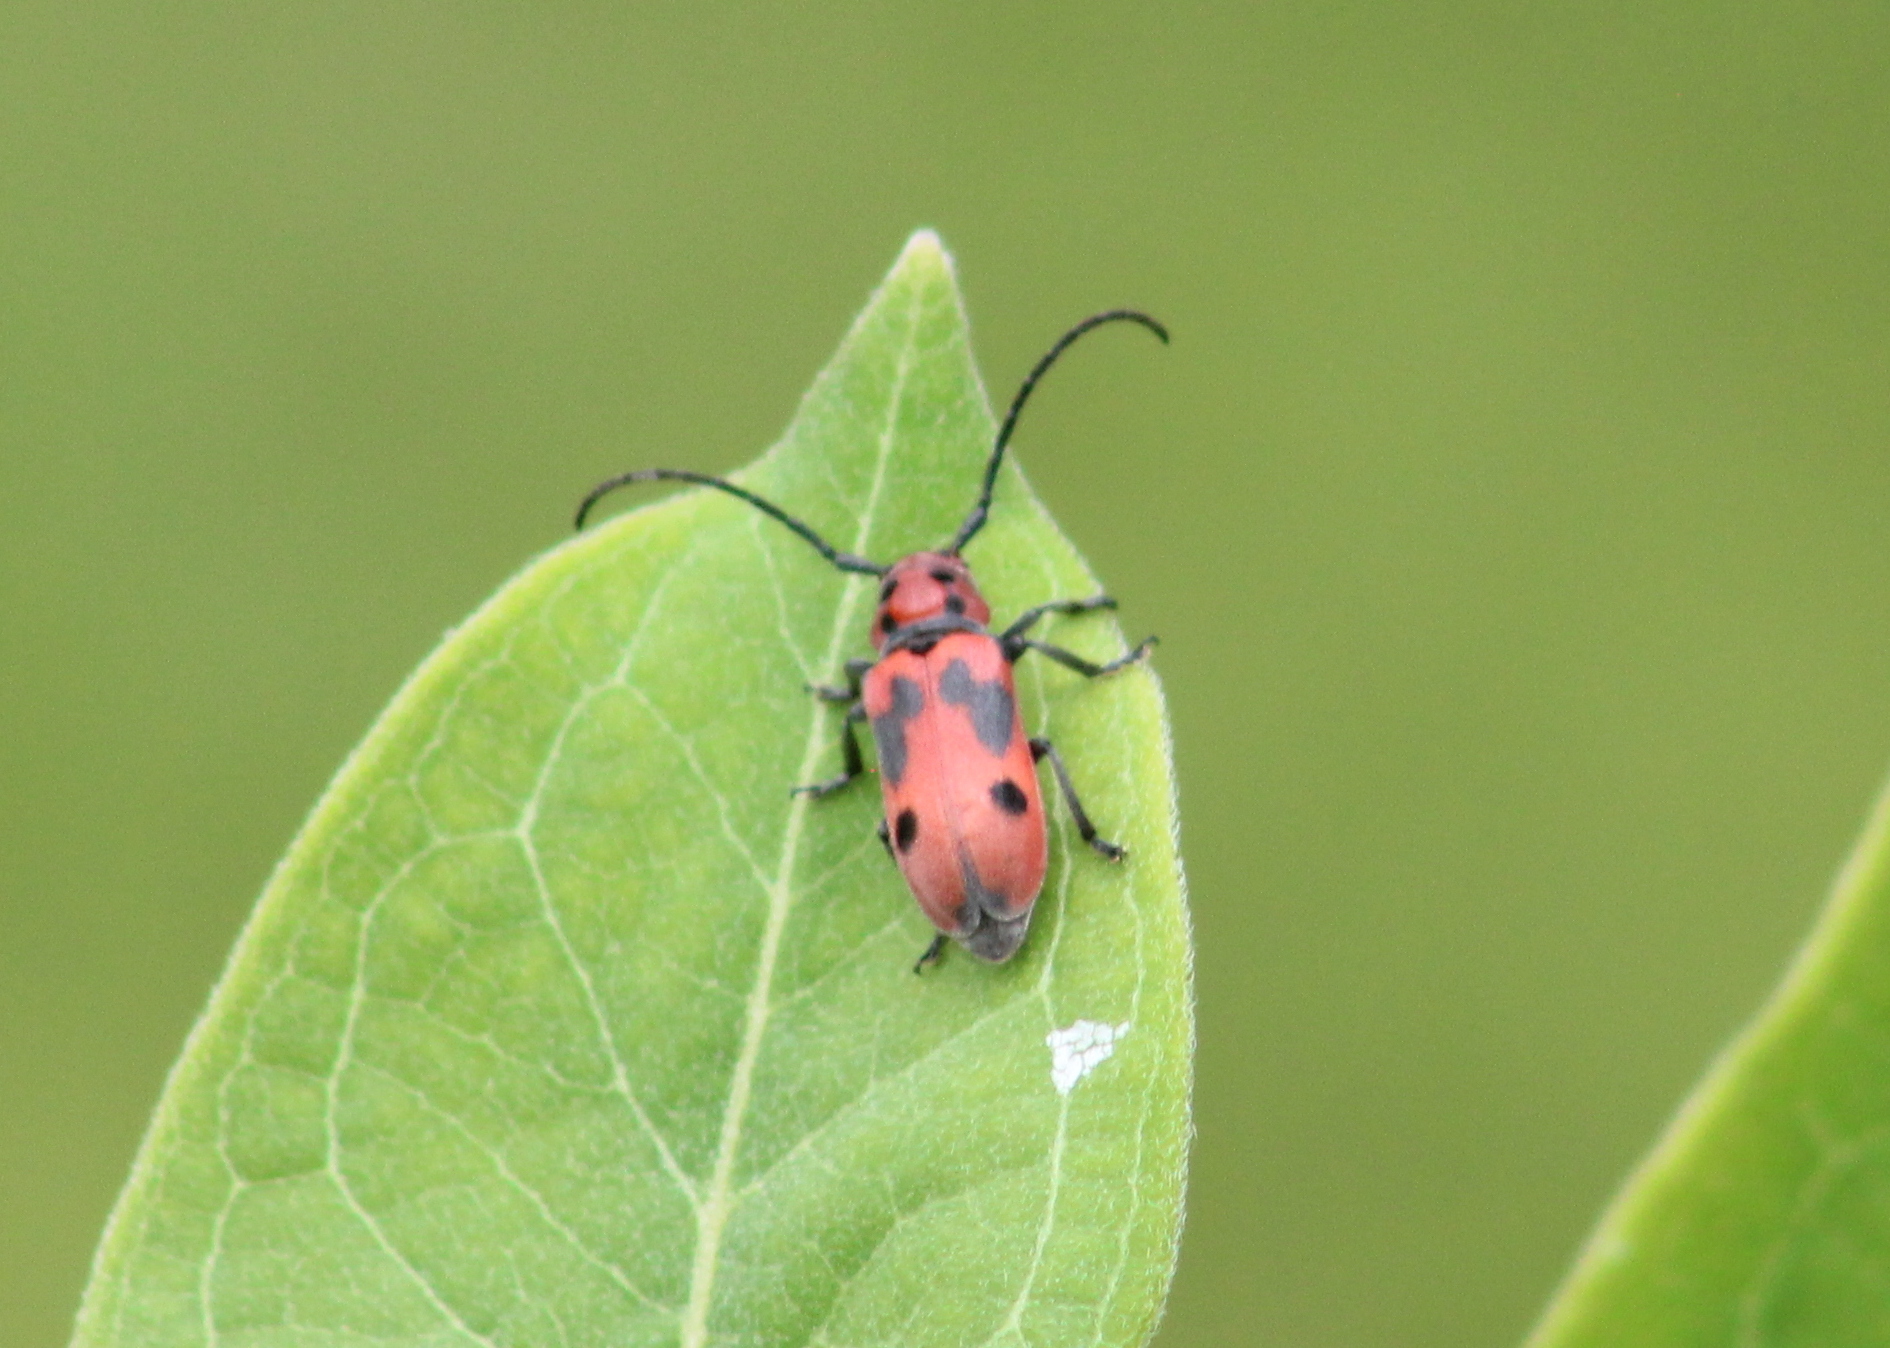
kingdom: Animalia
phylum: Arthropoda
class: Insecta
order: Coleoptera
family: Cerambycidae
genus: Tetraopes
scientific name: Tetraopes tetrophthalmus
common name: Red milkweed beetle
